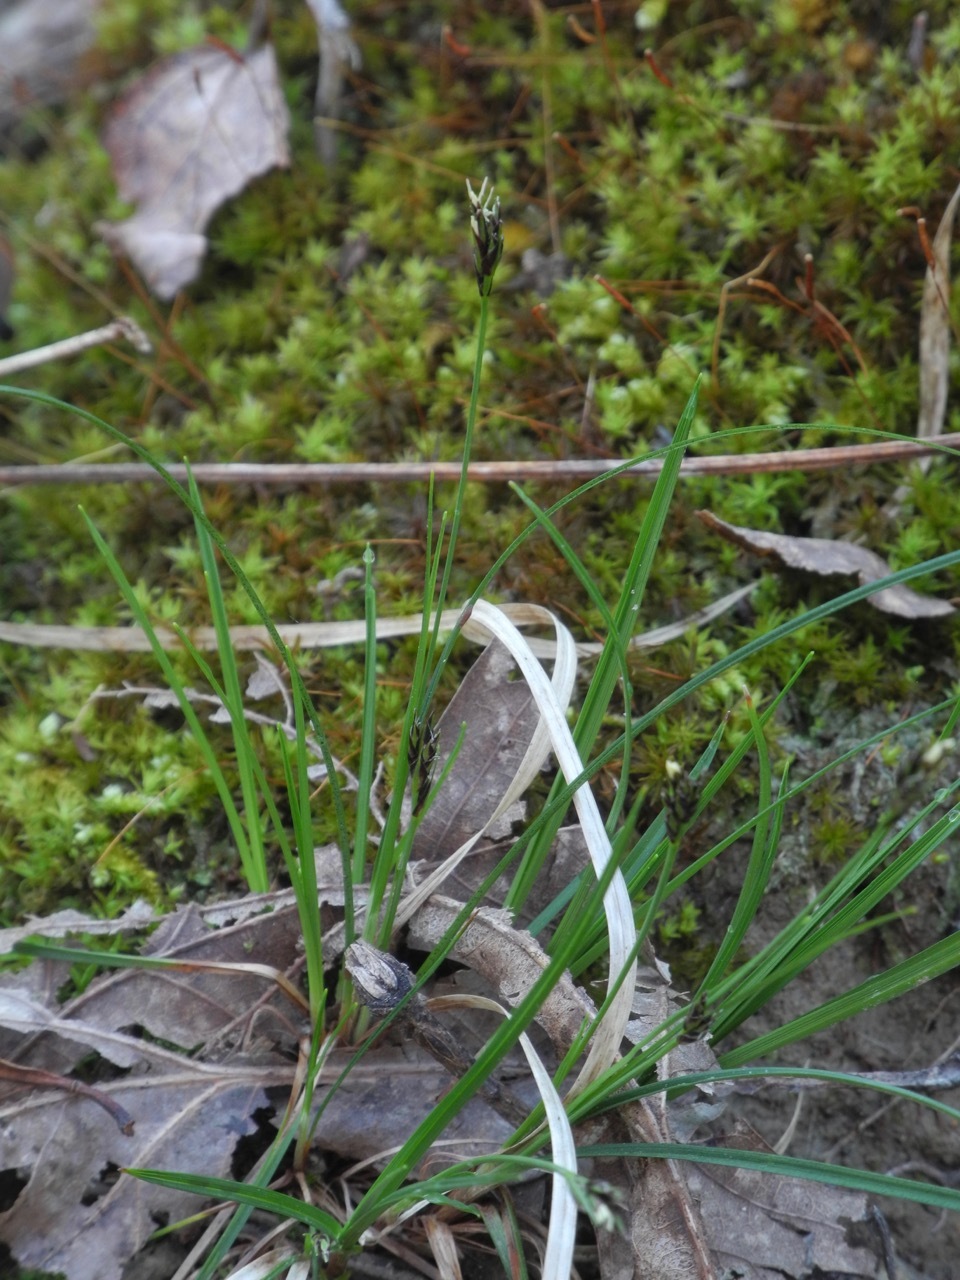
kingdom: Plantae
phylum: Tracheophyta
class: Liliopsida
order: Poales
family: Cyperaceae
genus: Carex
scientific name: Carex communis
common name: Colonial oak sedge
